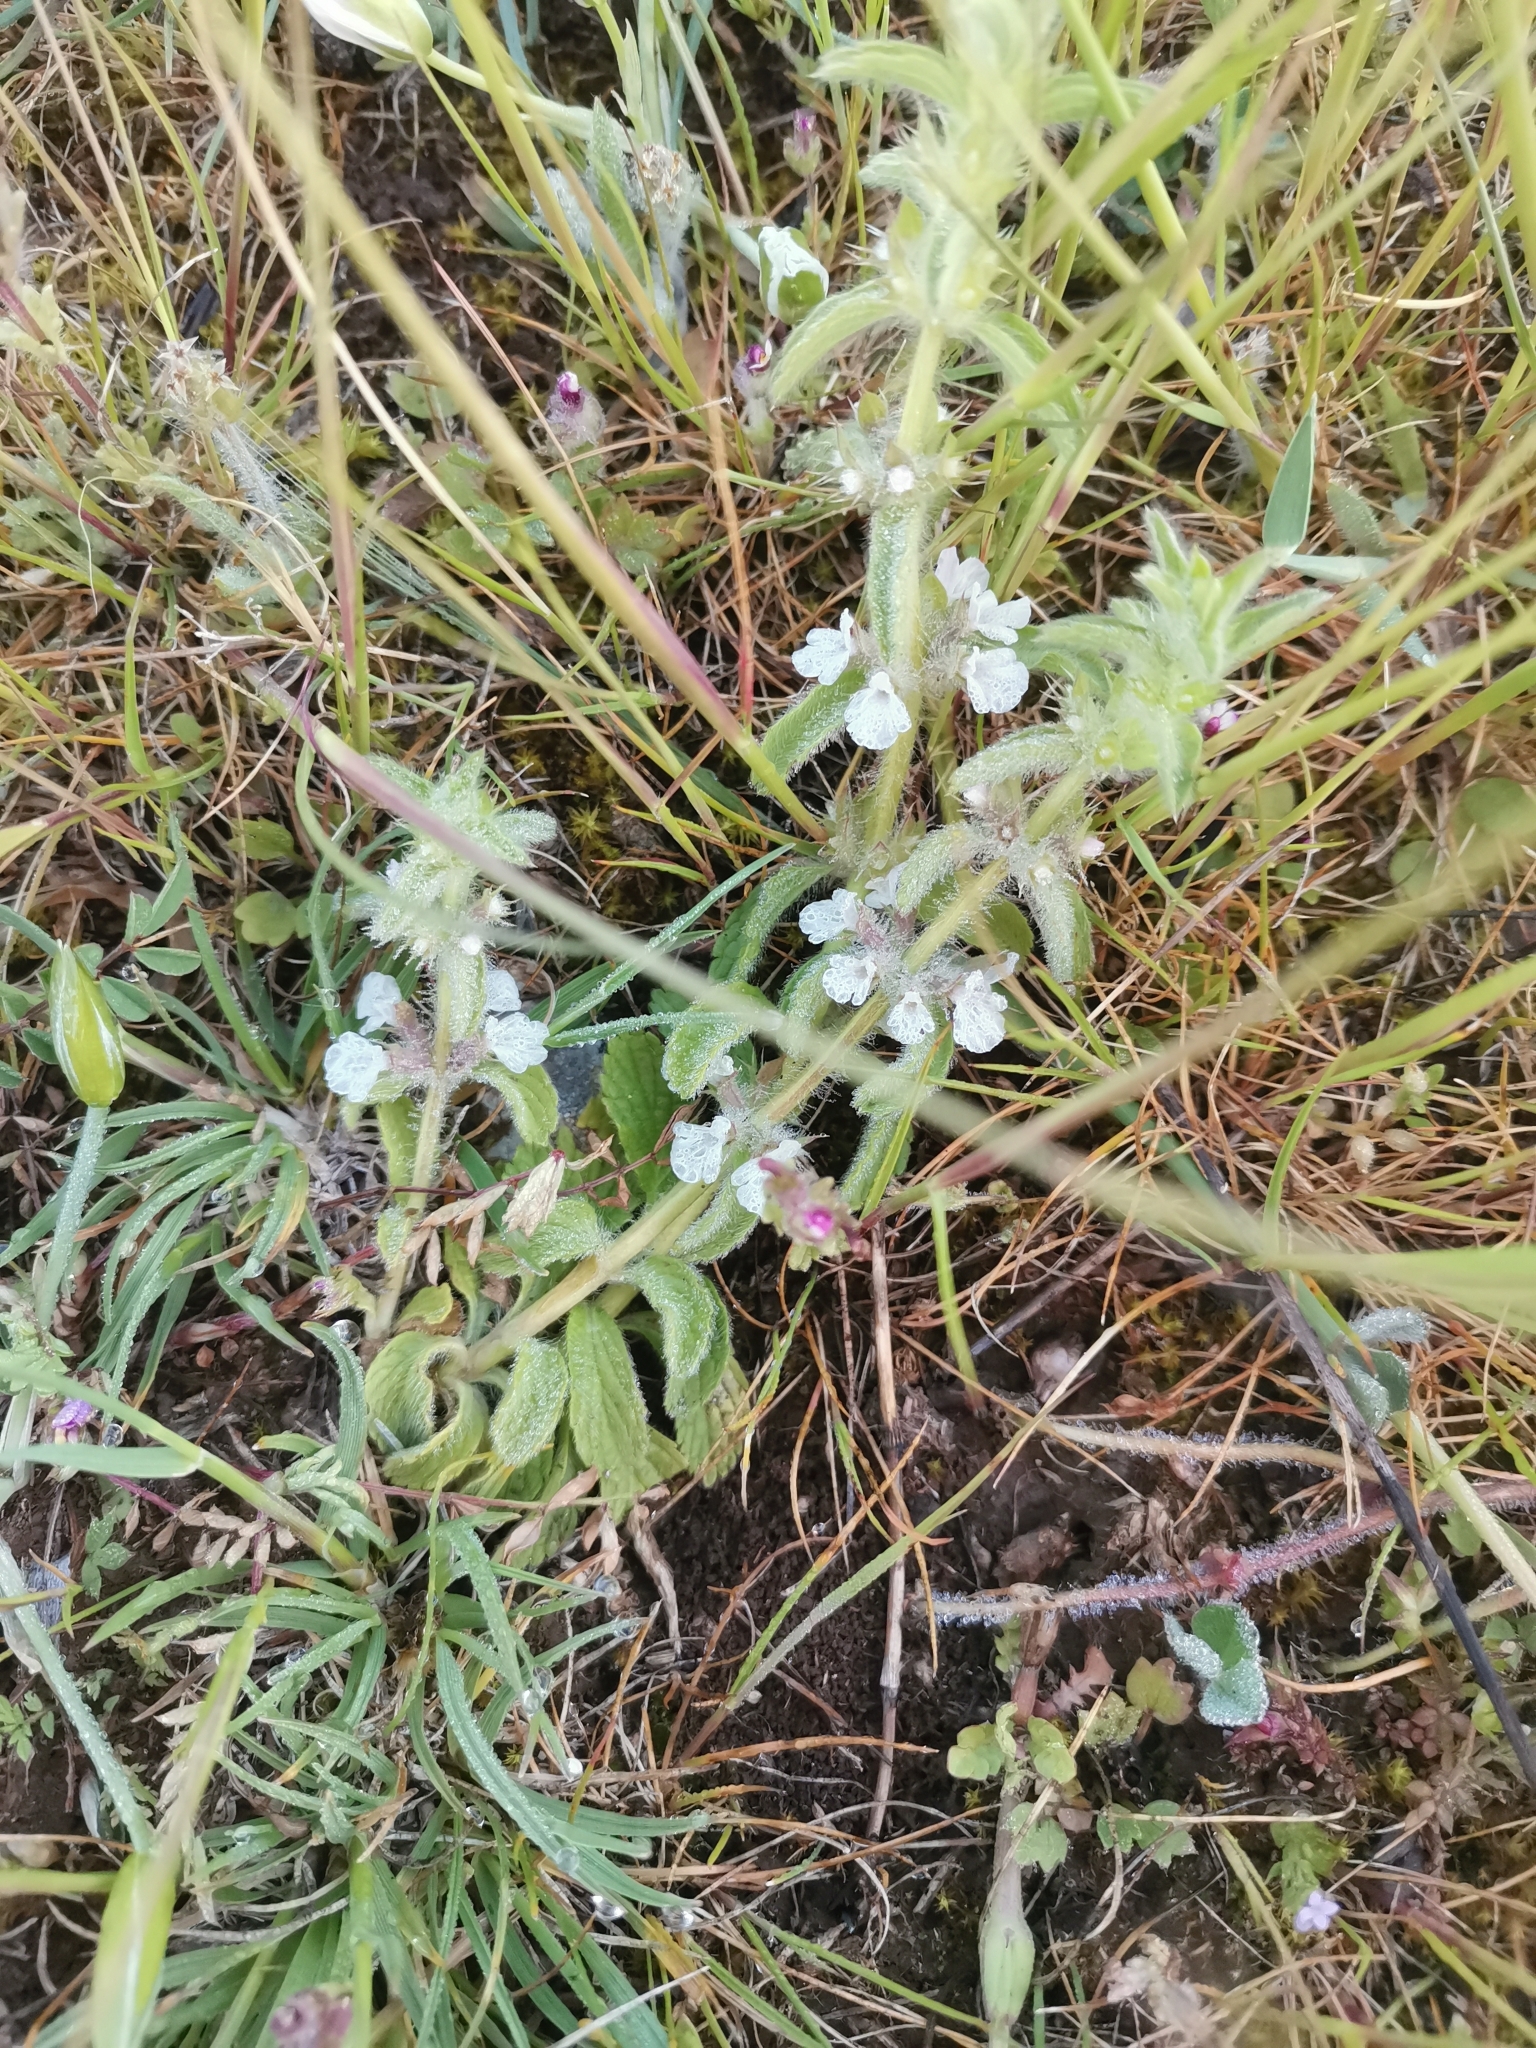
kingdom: Plantae
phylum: Tracheophyta
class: Magnoliopsida
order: Lamiales
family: Lamiaceae
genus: Sideritis
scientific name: Sideritis romana
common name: Simplebeak ironwort
